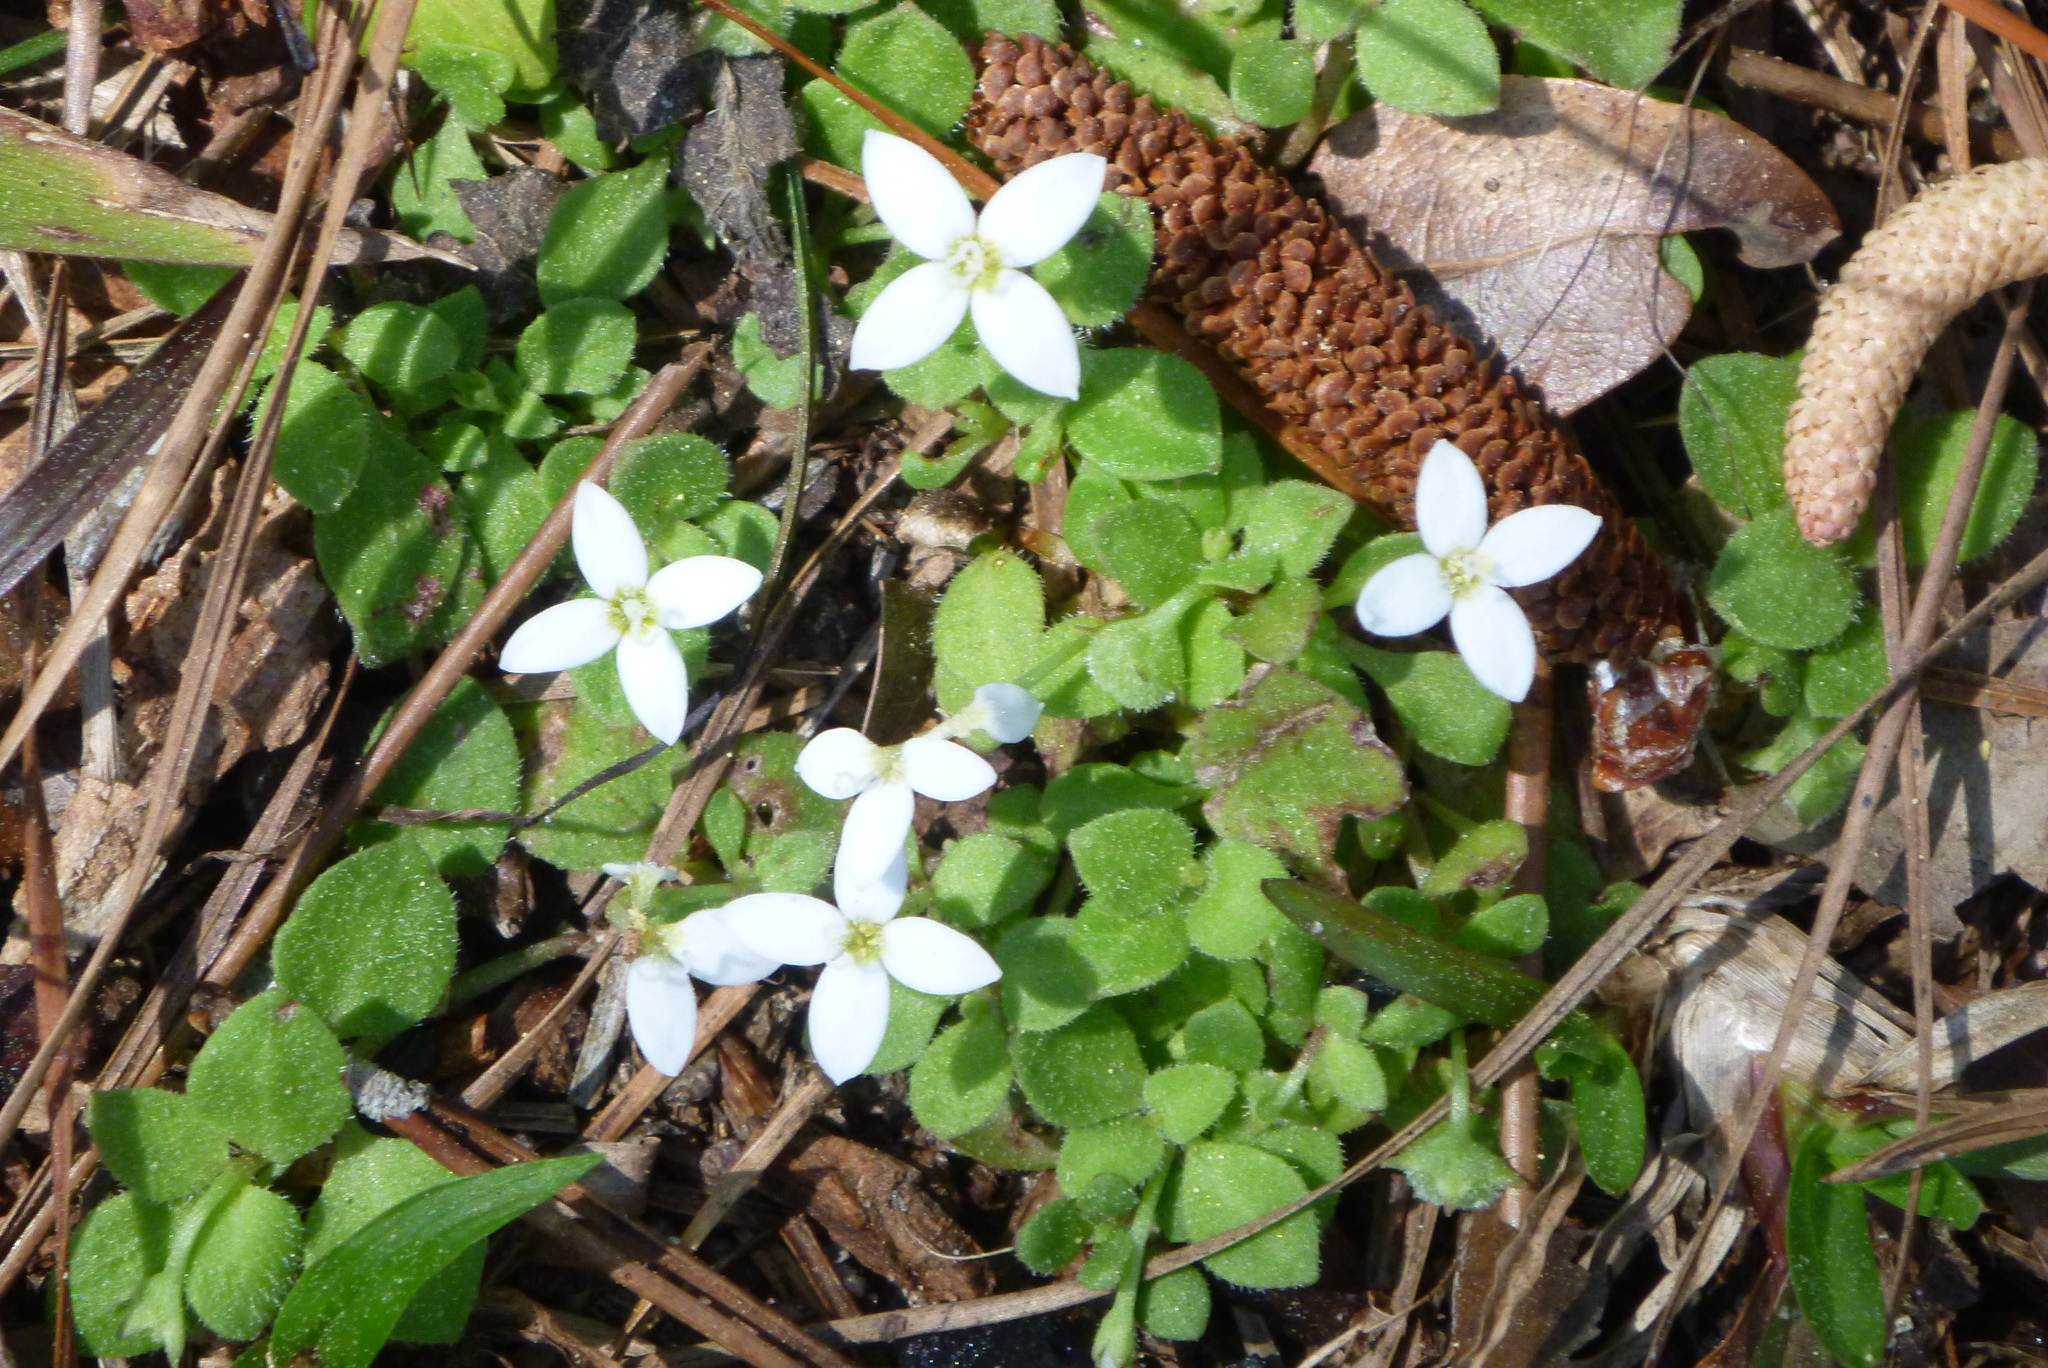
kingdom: Plantae
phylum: Tracheophyta
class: Magnoliopsida
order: Gentianales
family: Rubiaceae
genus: Houstonia
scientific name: Houstonia procumbens
